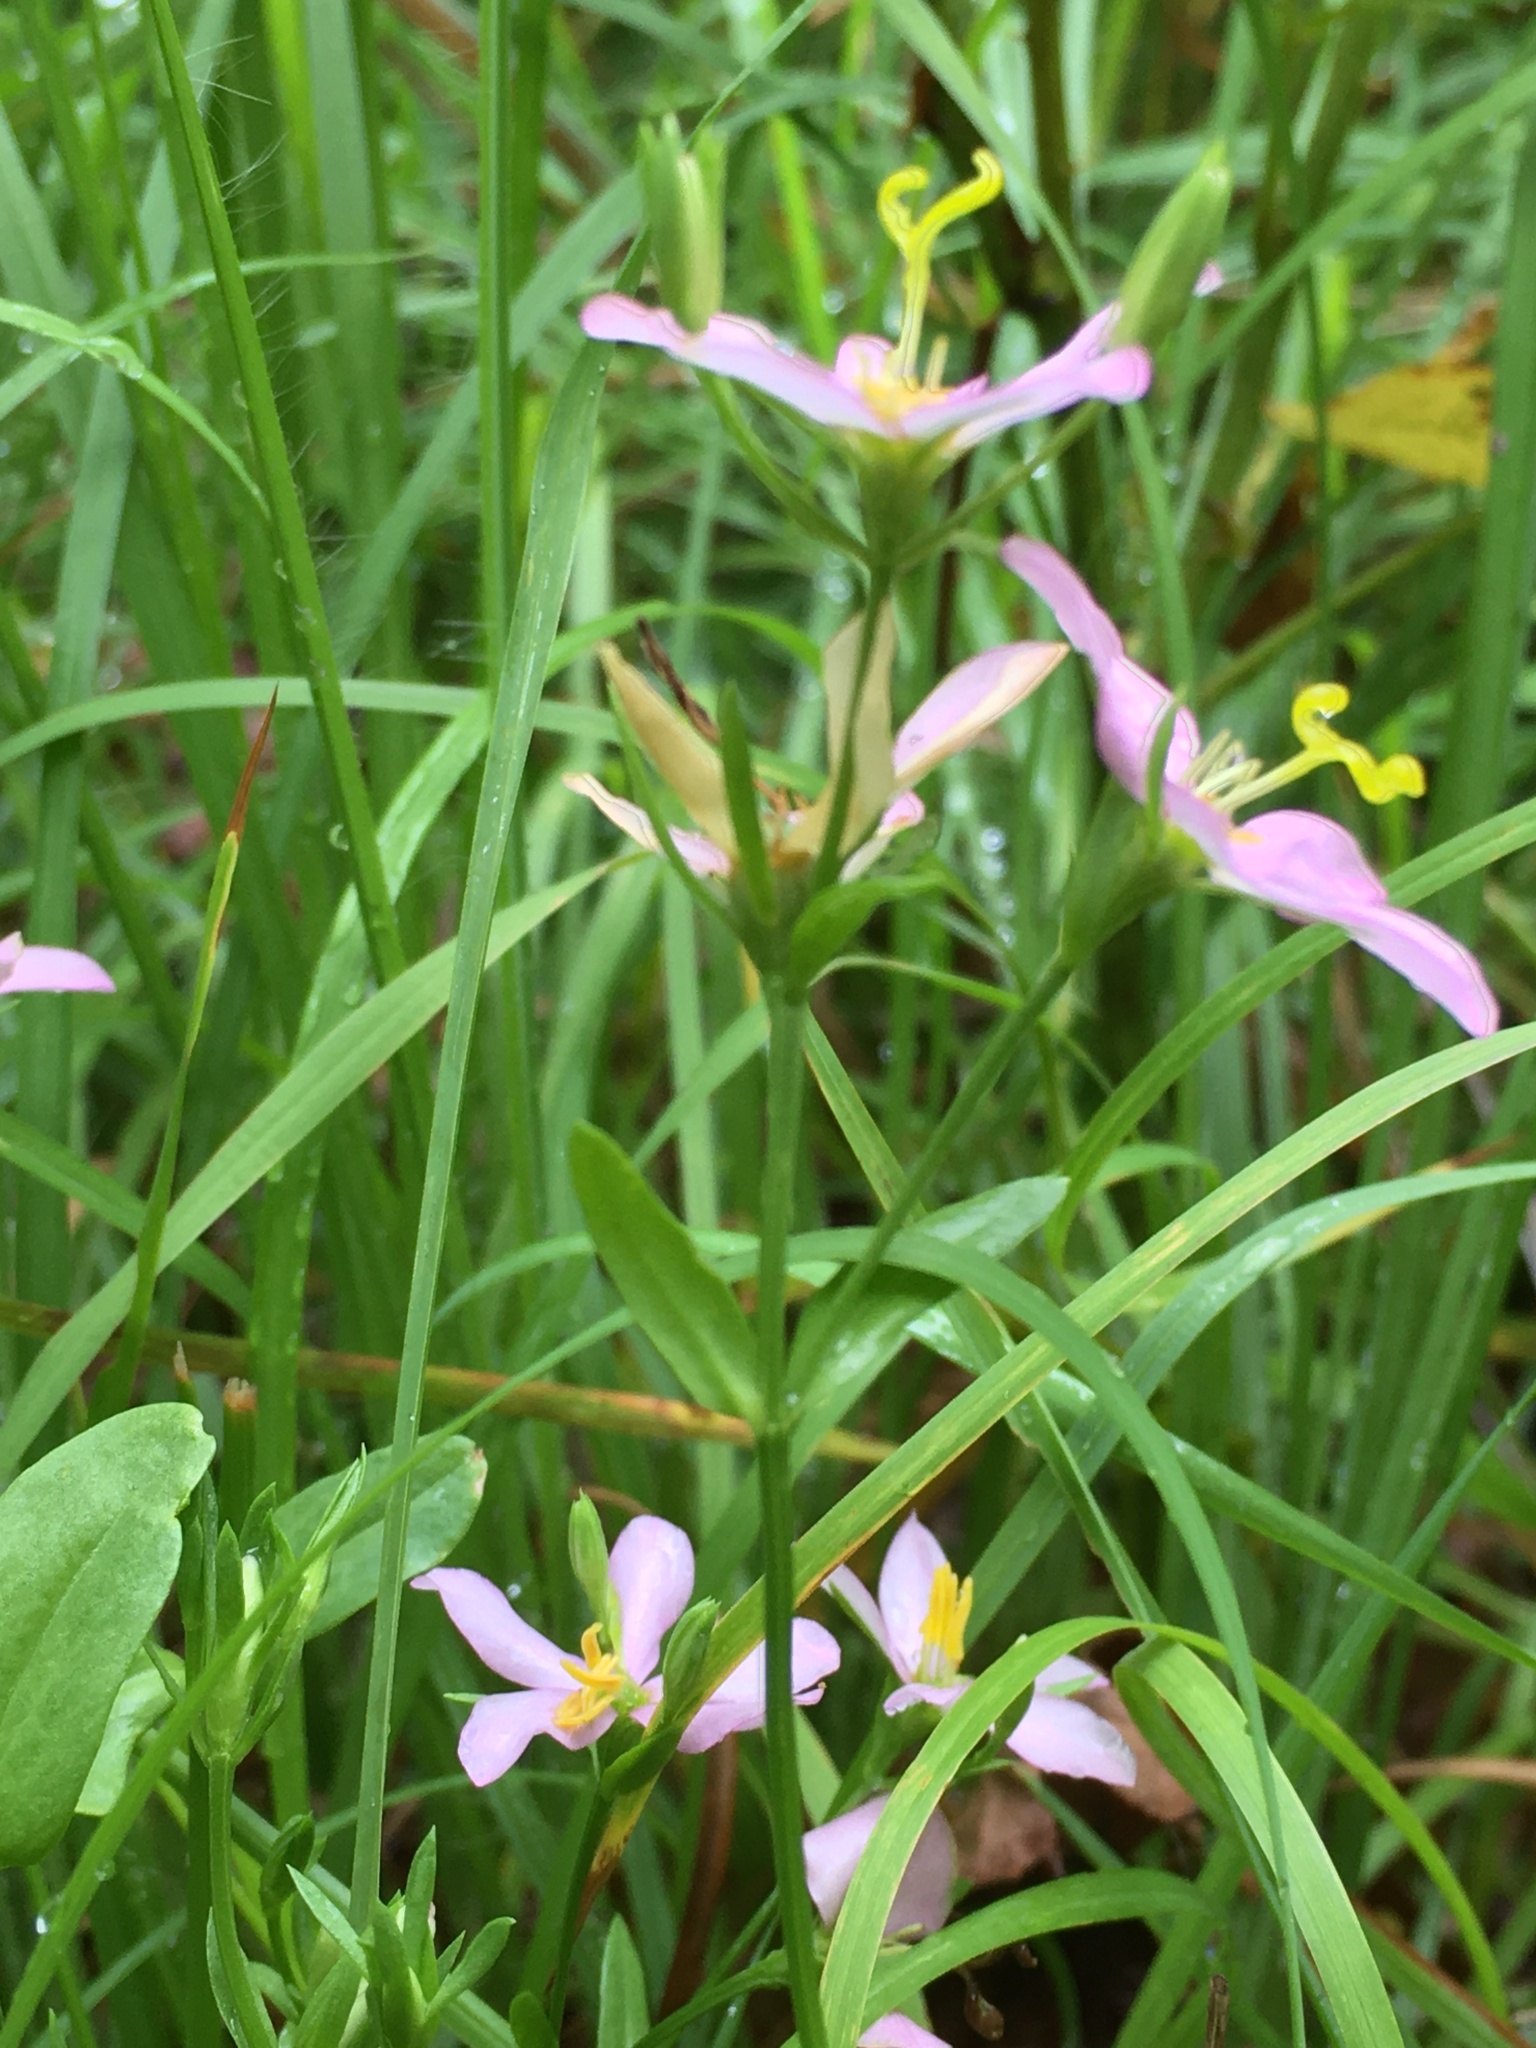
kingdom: Plantae
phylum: Tracheophyta
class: Magnoliopsida
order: Gentianales
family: Gentianaceae
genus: Sabatia
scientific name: Sabatia angularis
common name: Rose-pink
